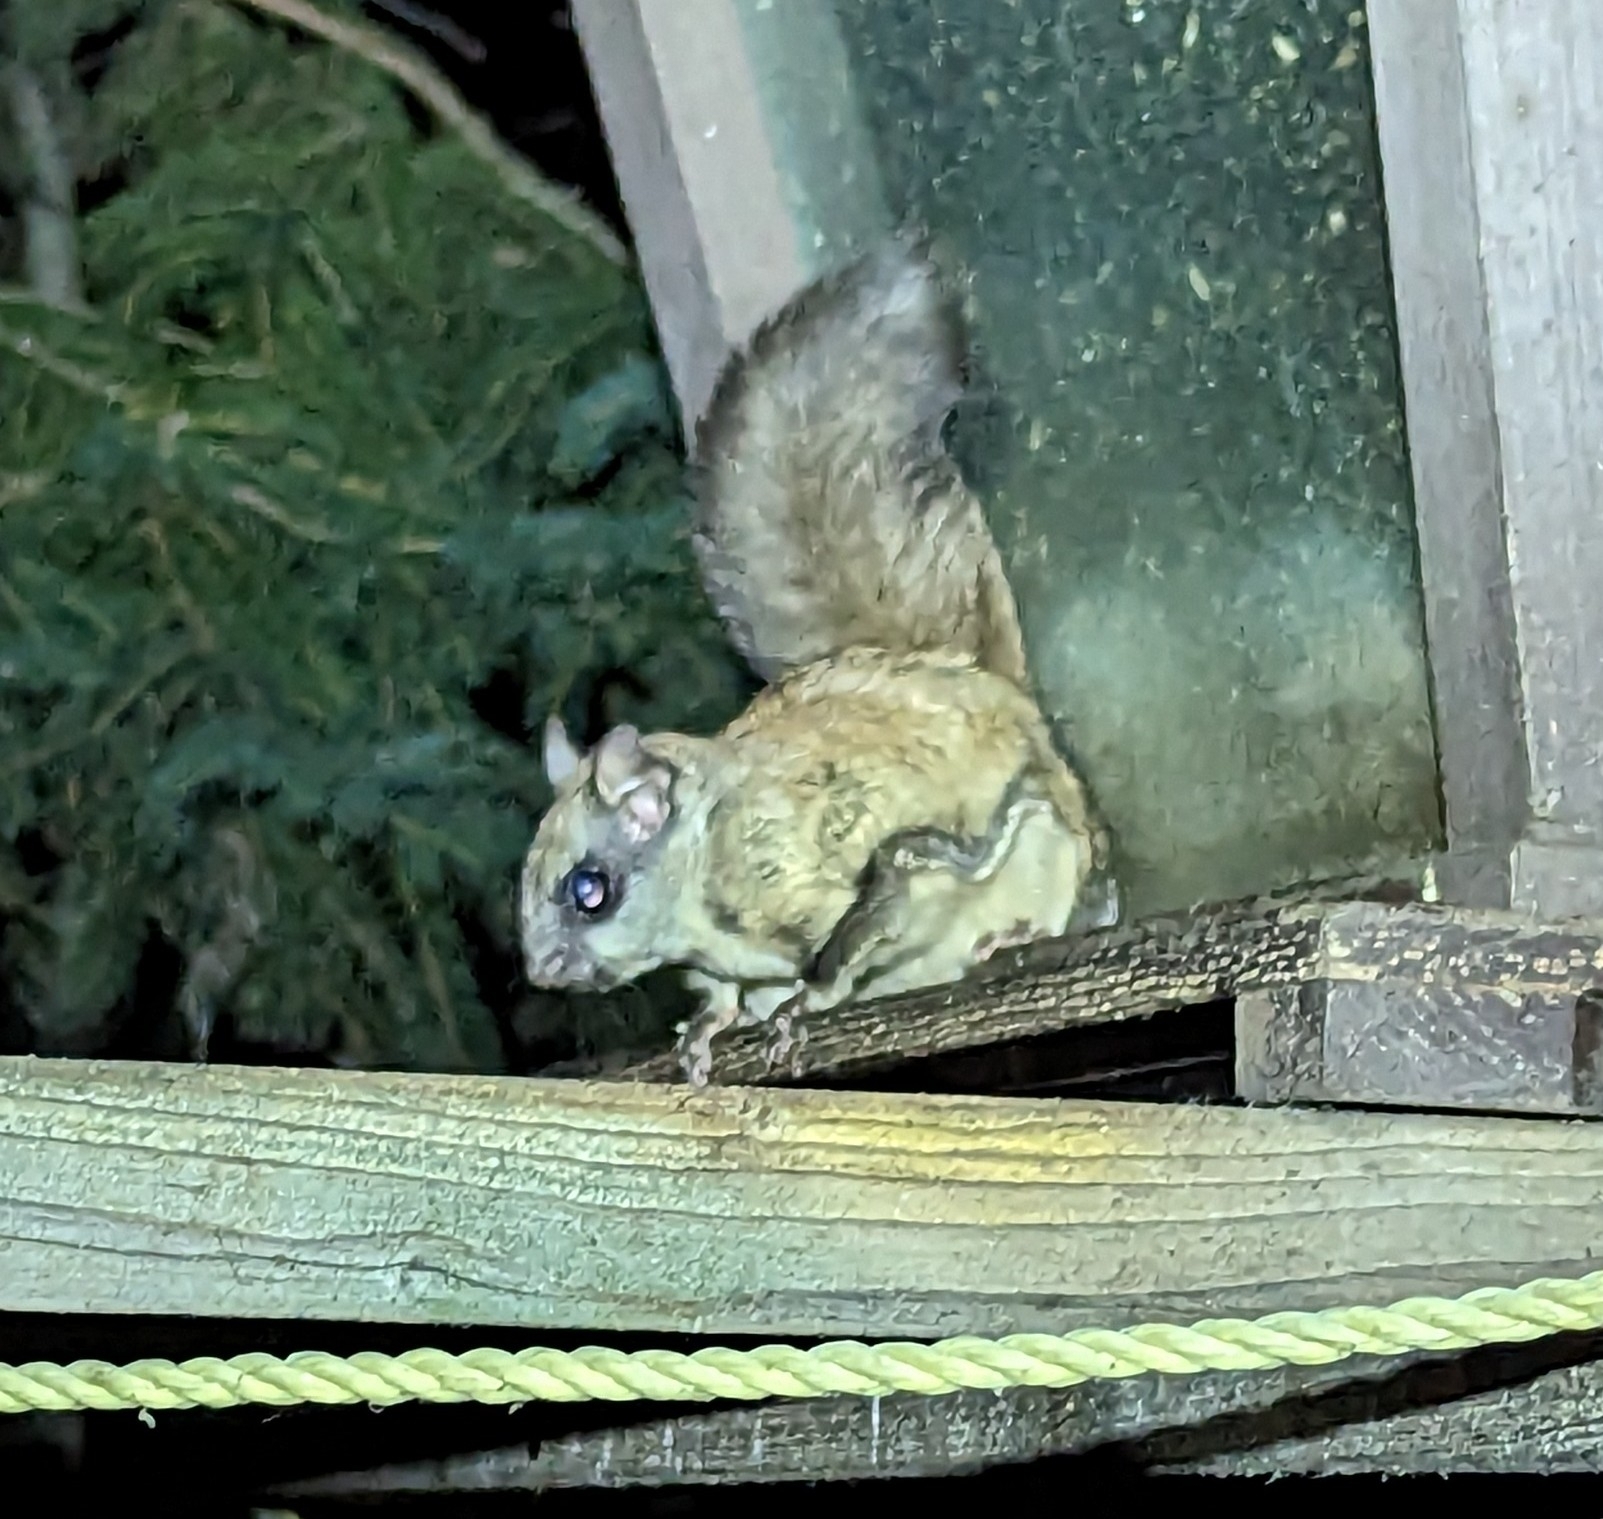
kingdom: Animalia
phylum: Chordata
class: Mammalia
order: Rodentia
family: Sciuridae
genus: Glaucomys
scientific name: Glaucomys sabrinus
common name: Northern flying squirrel
